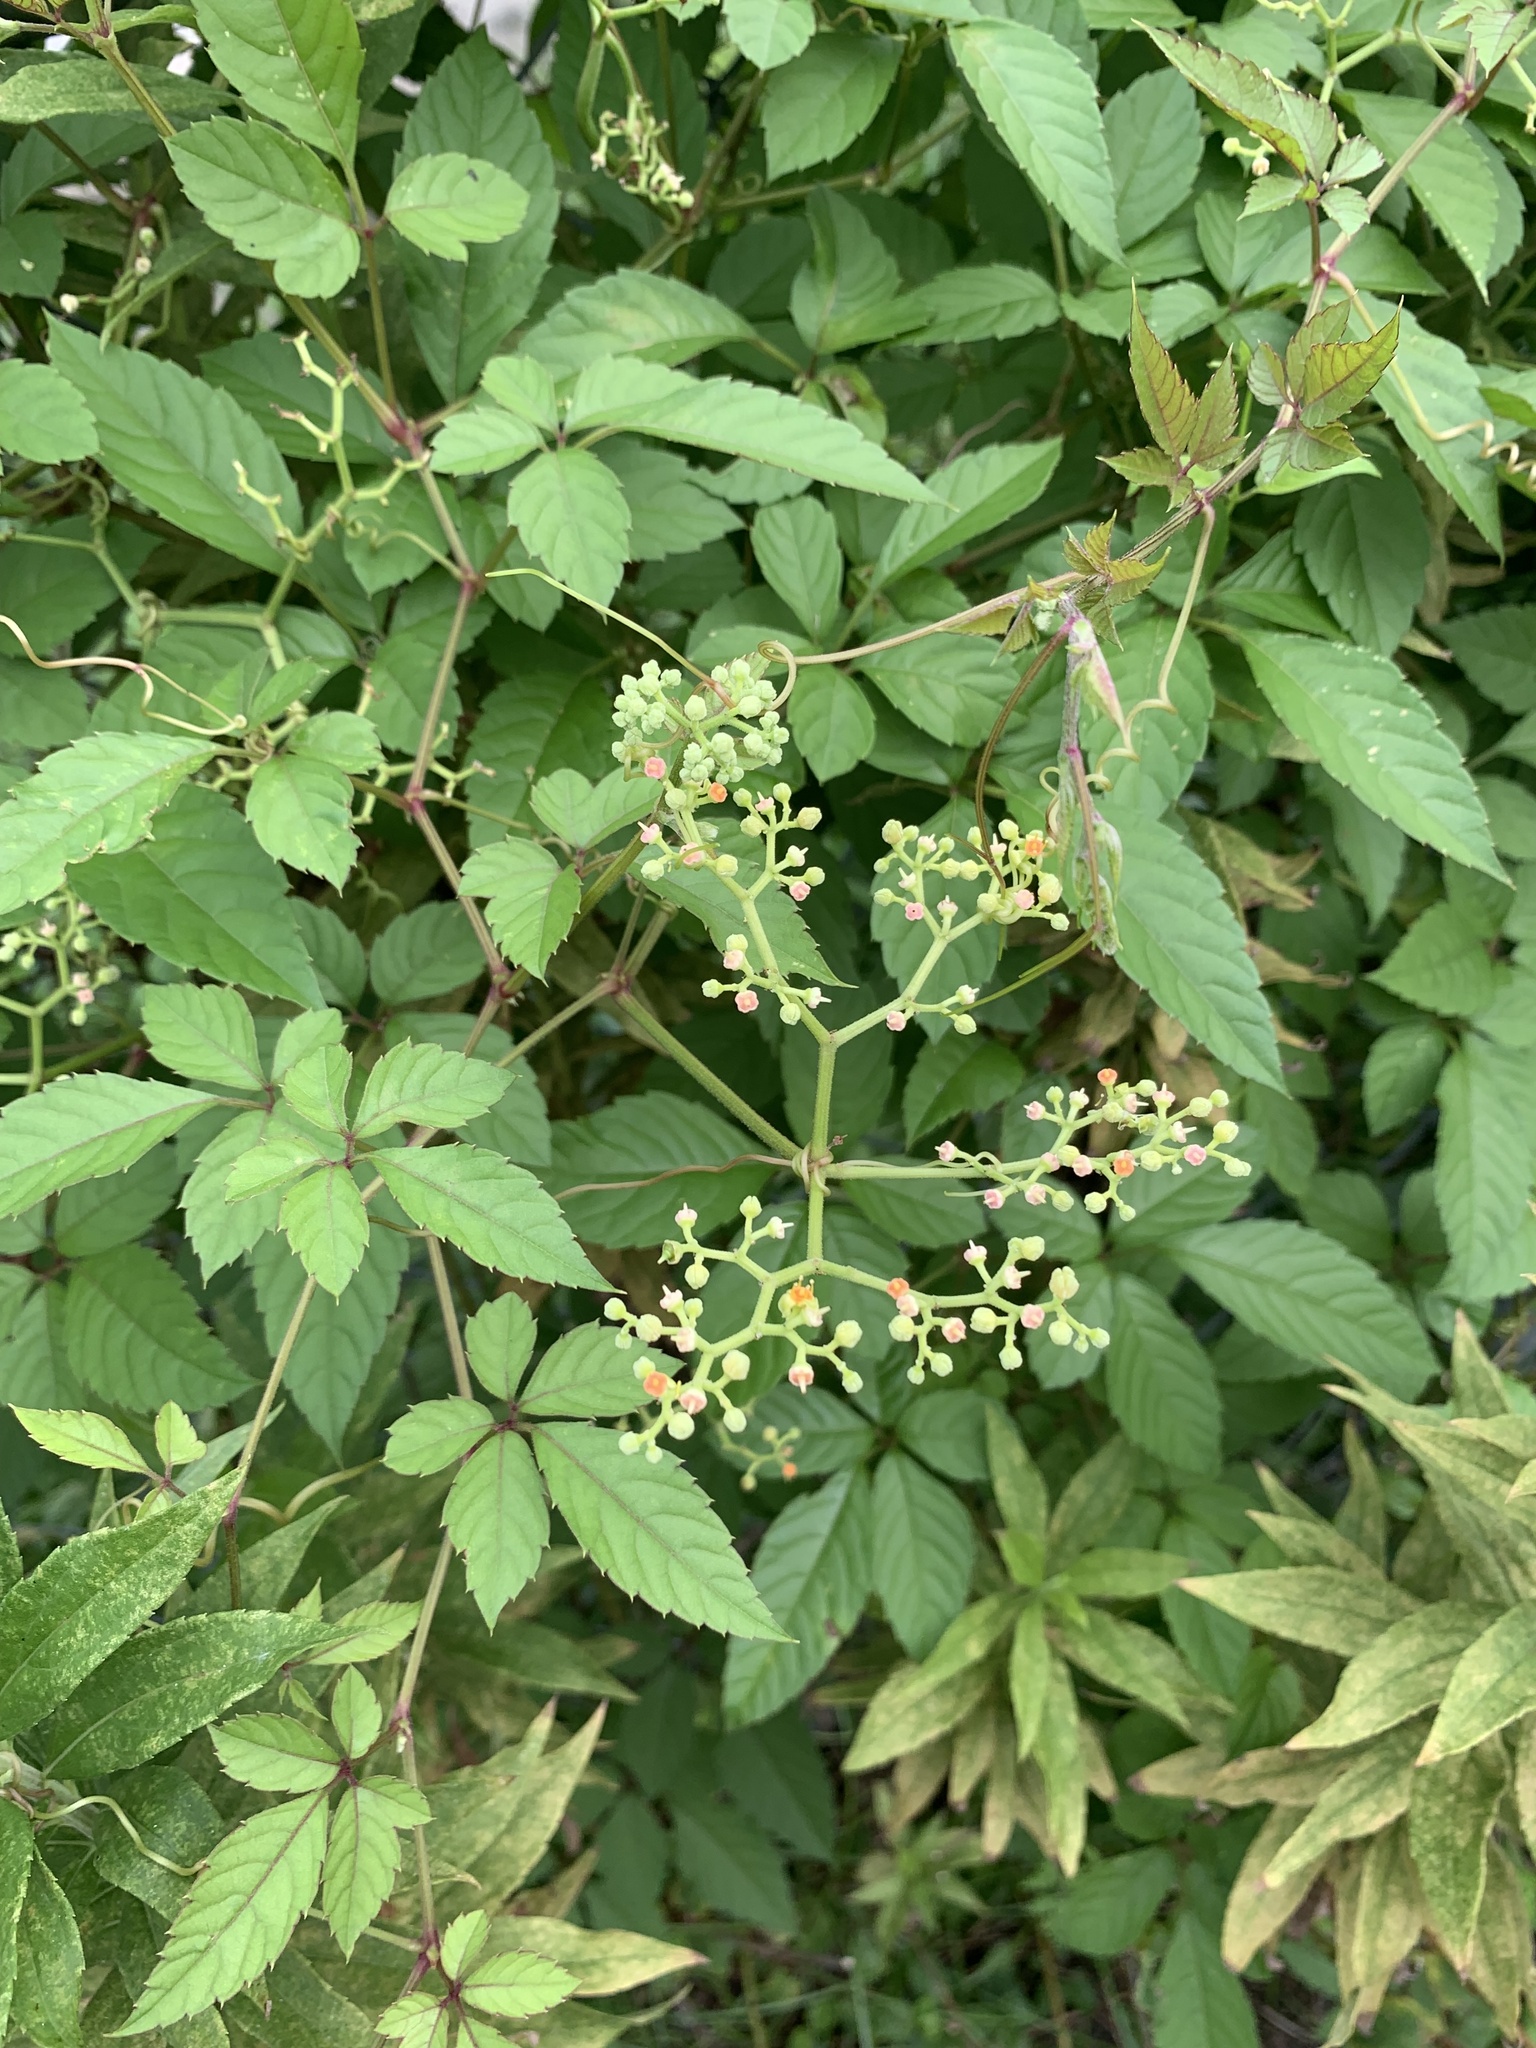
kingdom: Plantae
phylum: Tracheophyta
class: Magnoliopsida
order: Vitales
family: Vitaceae
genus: Causonis
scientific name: Causonis japonica
